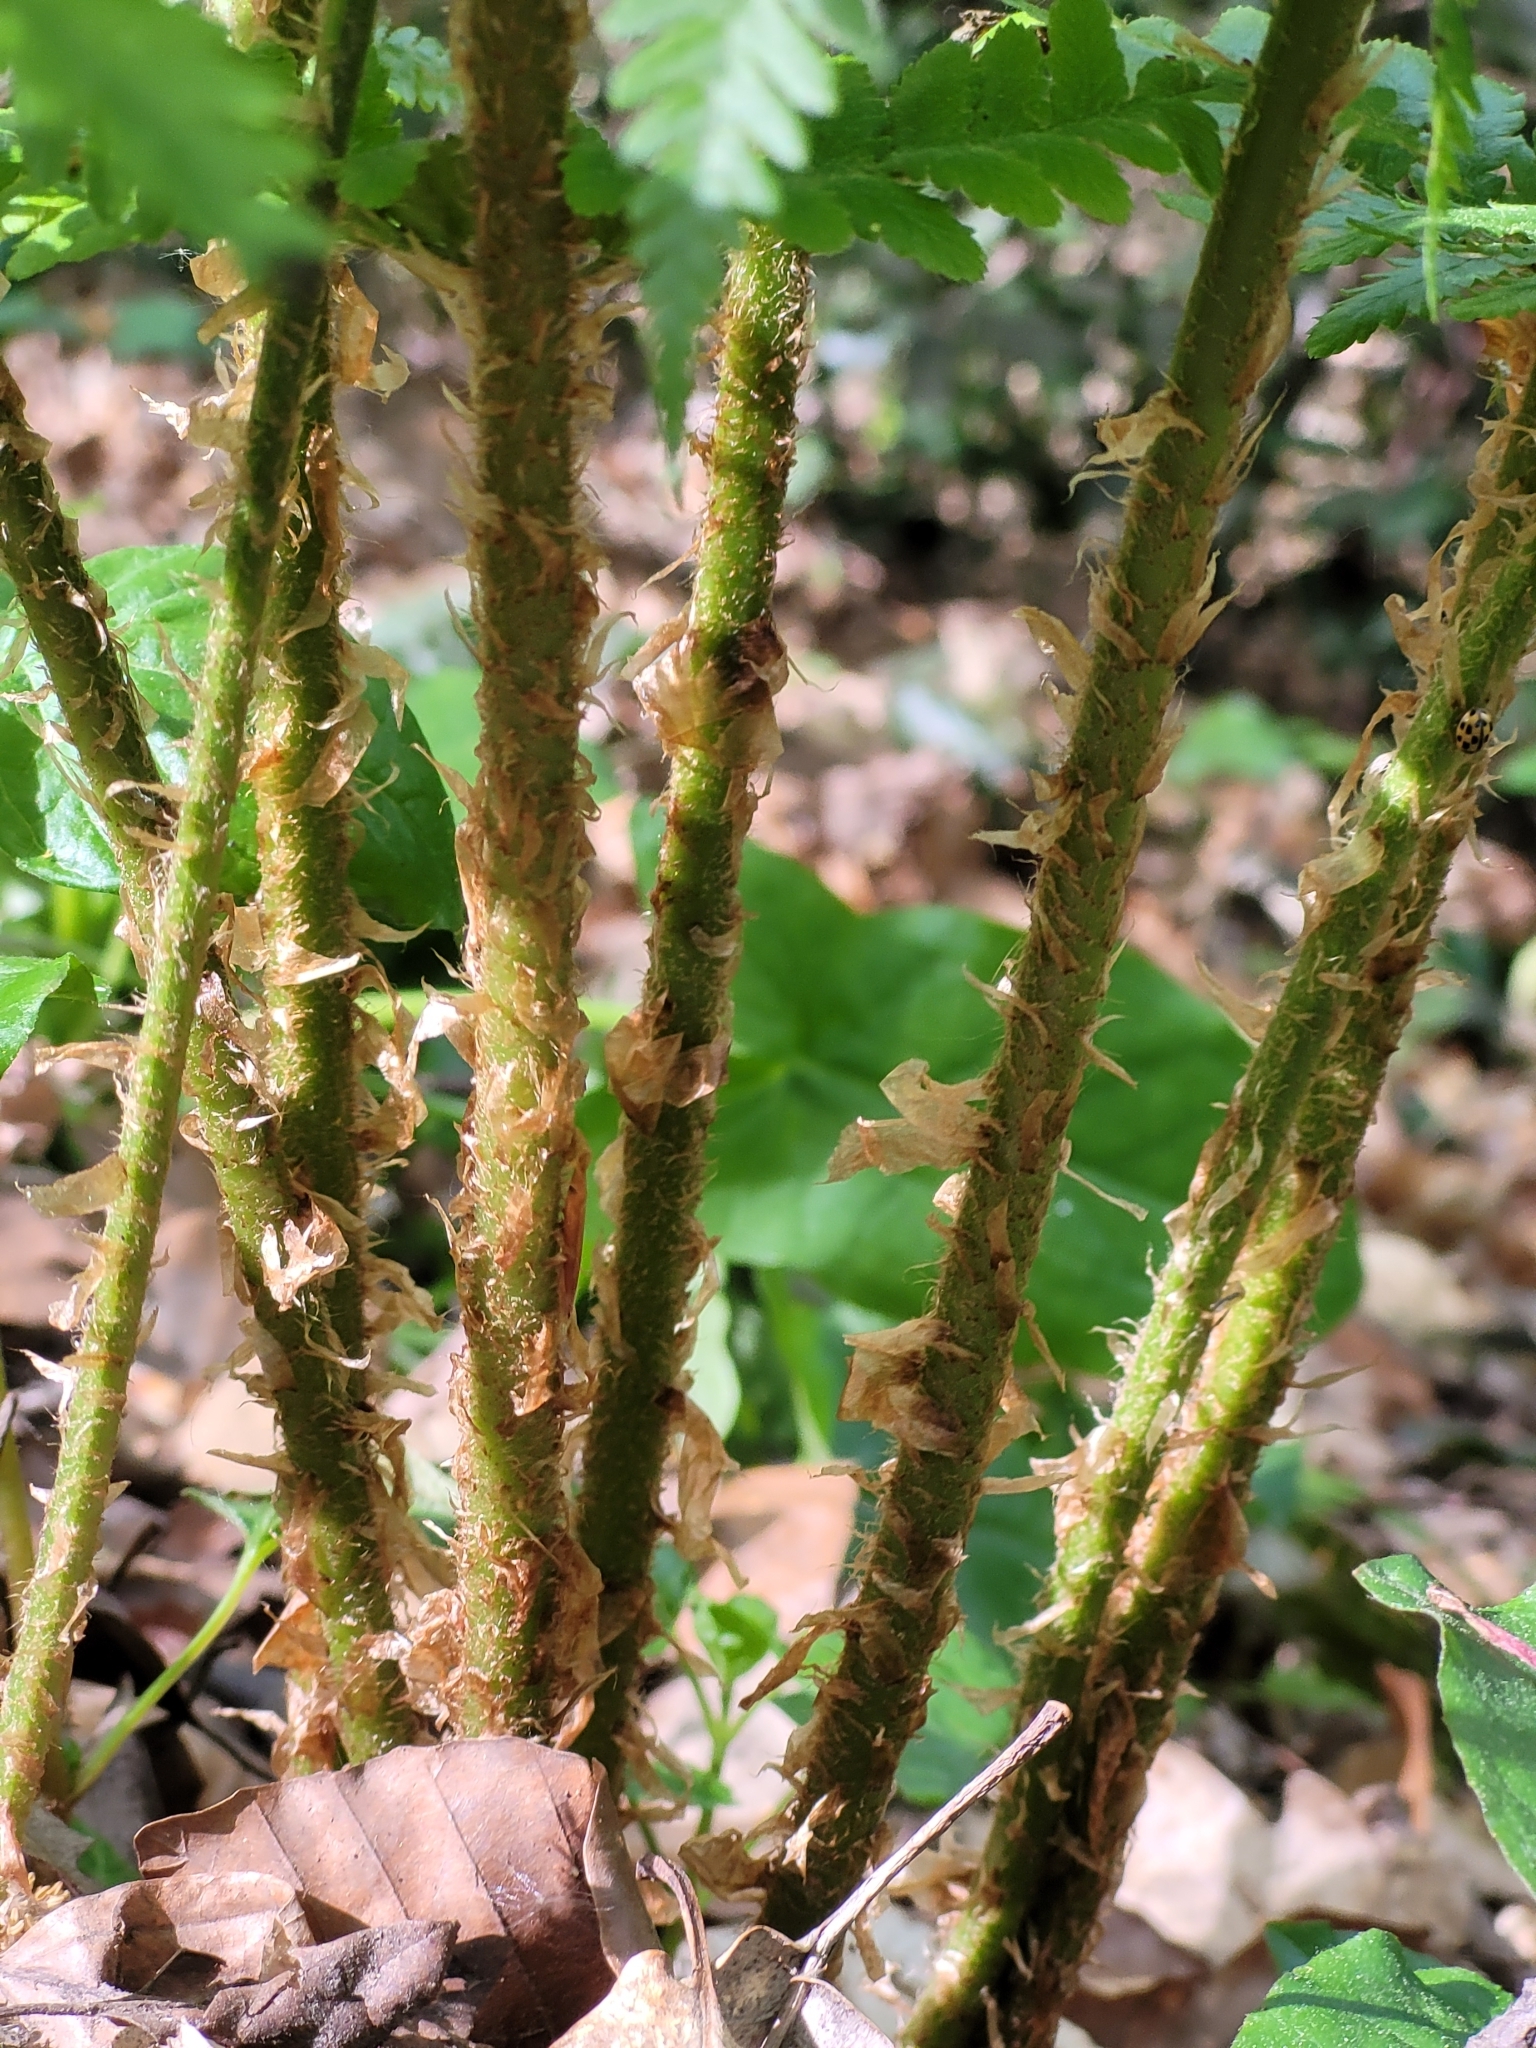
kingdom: Plantae
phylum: Tracheophyta
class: Polypodiopsida
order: Polypodiales
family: Dryopteridaceae
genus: Dryopteris
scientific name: Dryopteris filix-mas
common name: Male fern
